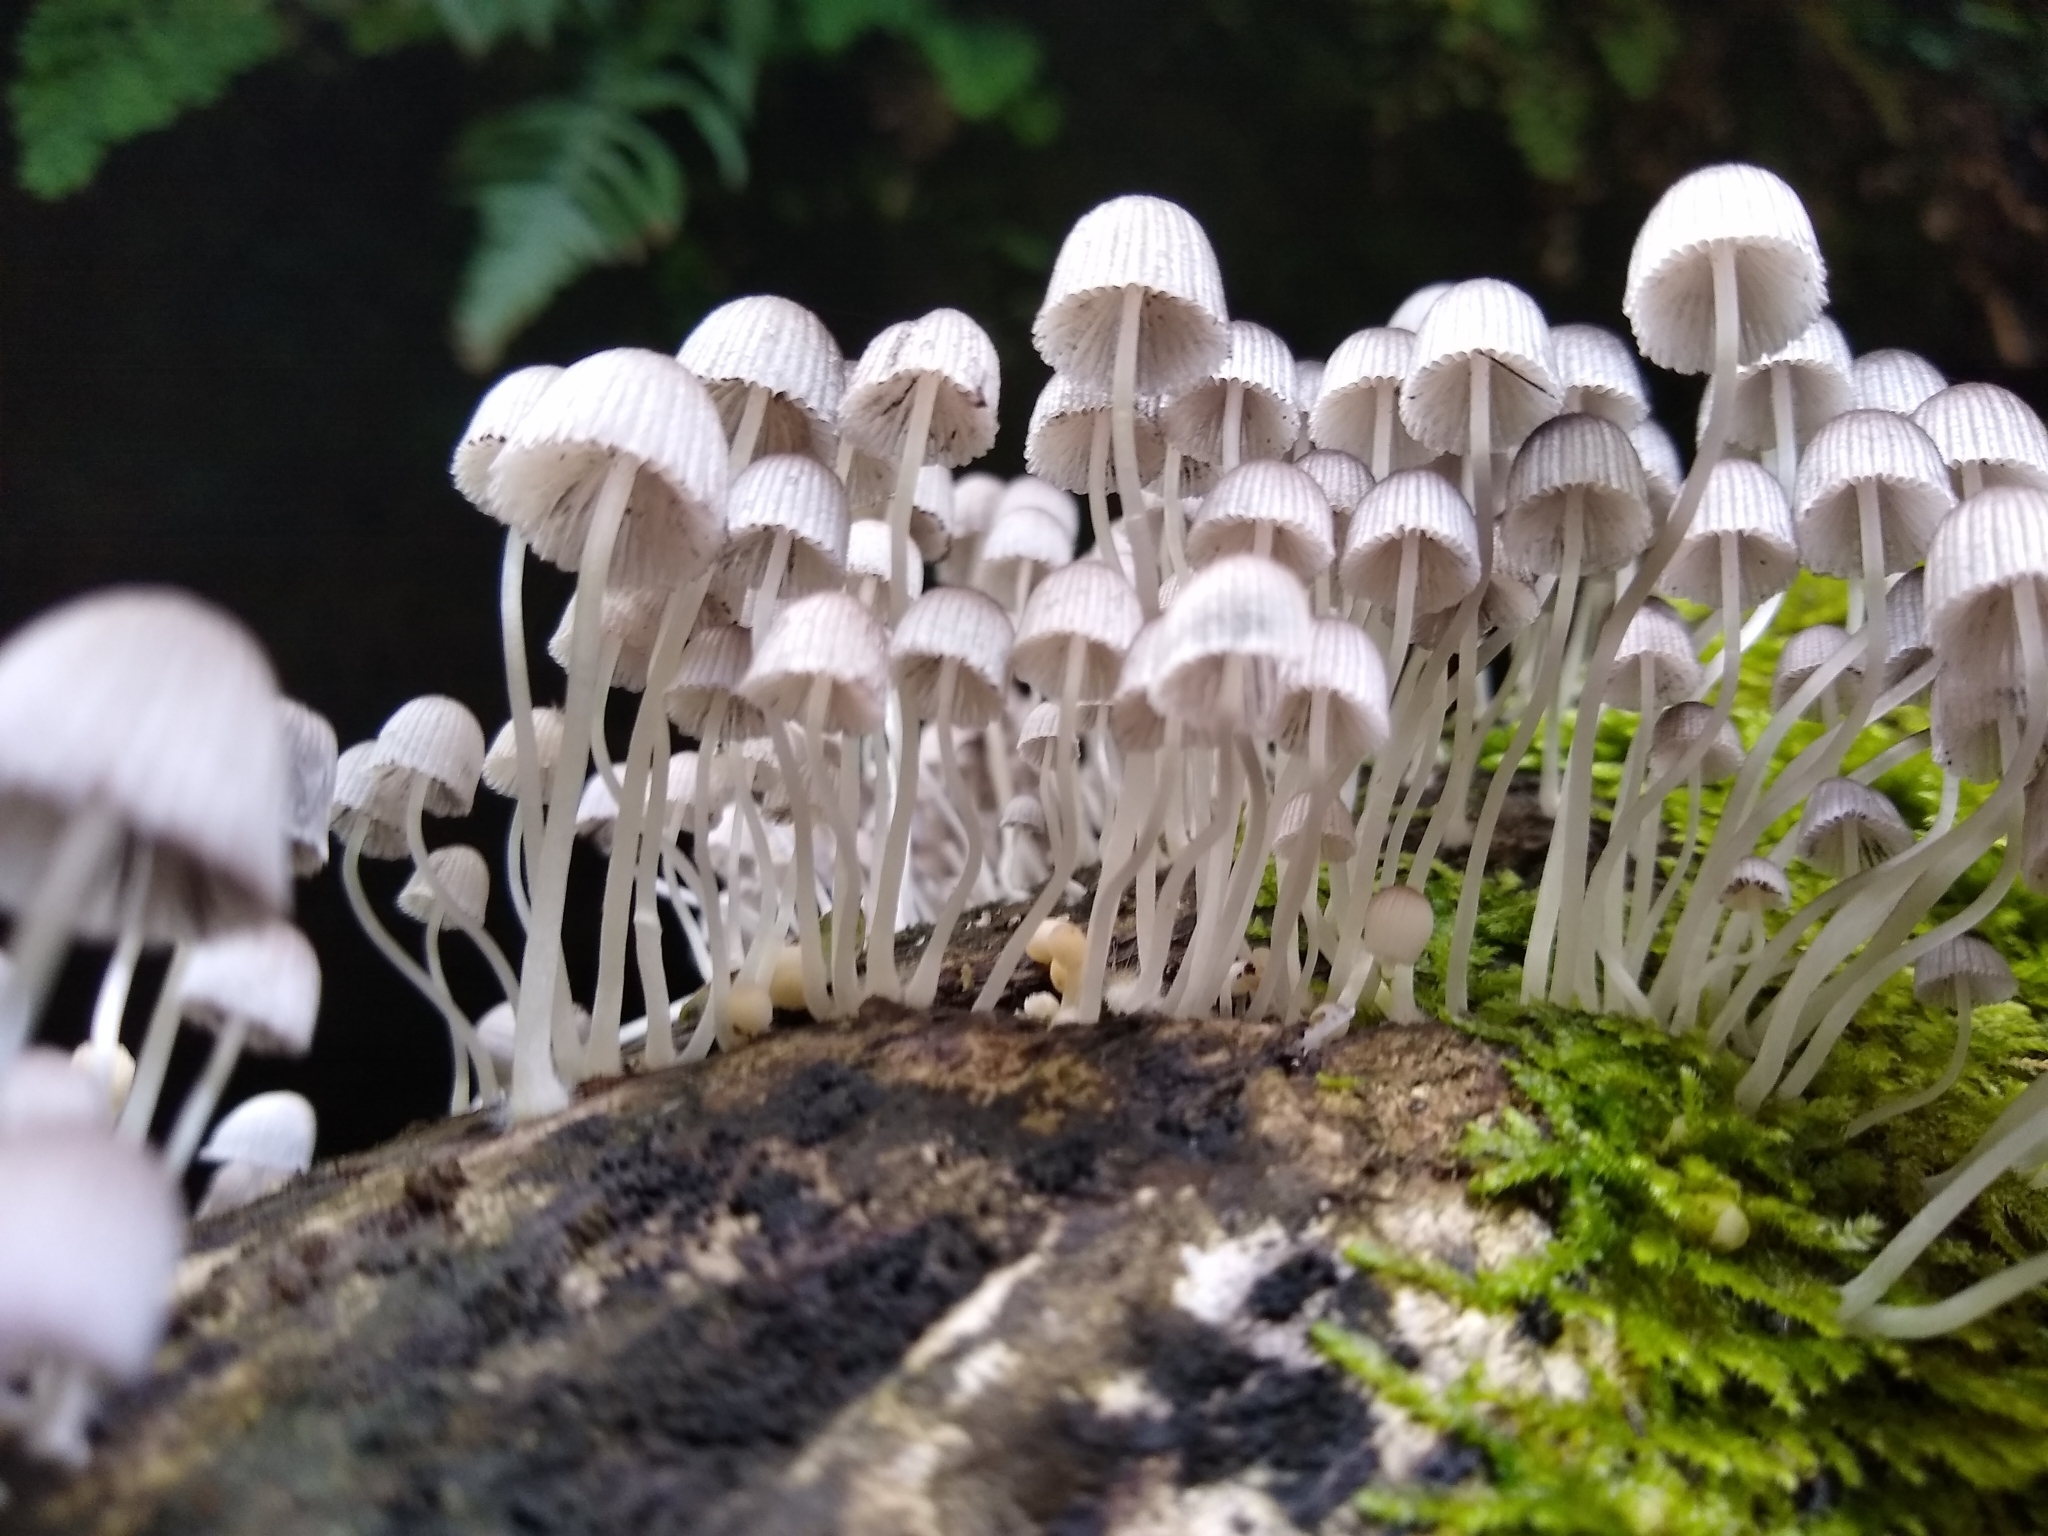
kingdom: Fungi
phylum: Basidiomycota
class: Agaricomycetes
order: Agaricales
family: Psathyrellaceae
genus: Coprinellus
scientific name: Coprinellus disseminatus
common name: Fairies' bonnets
